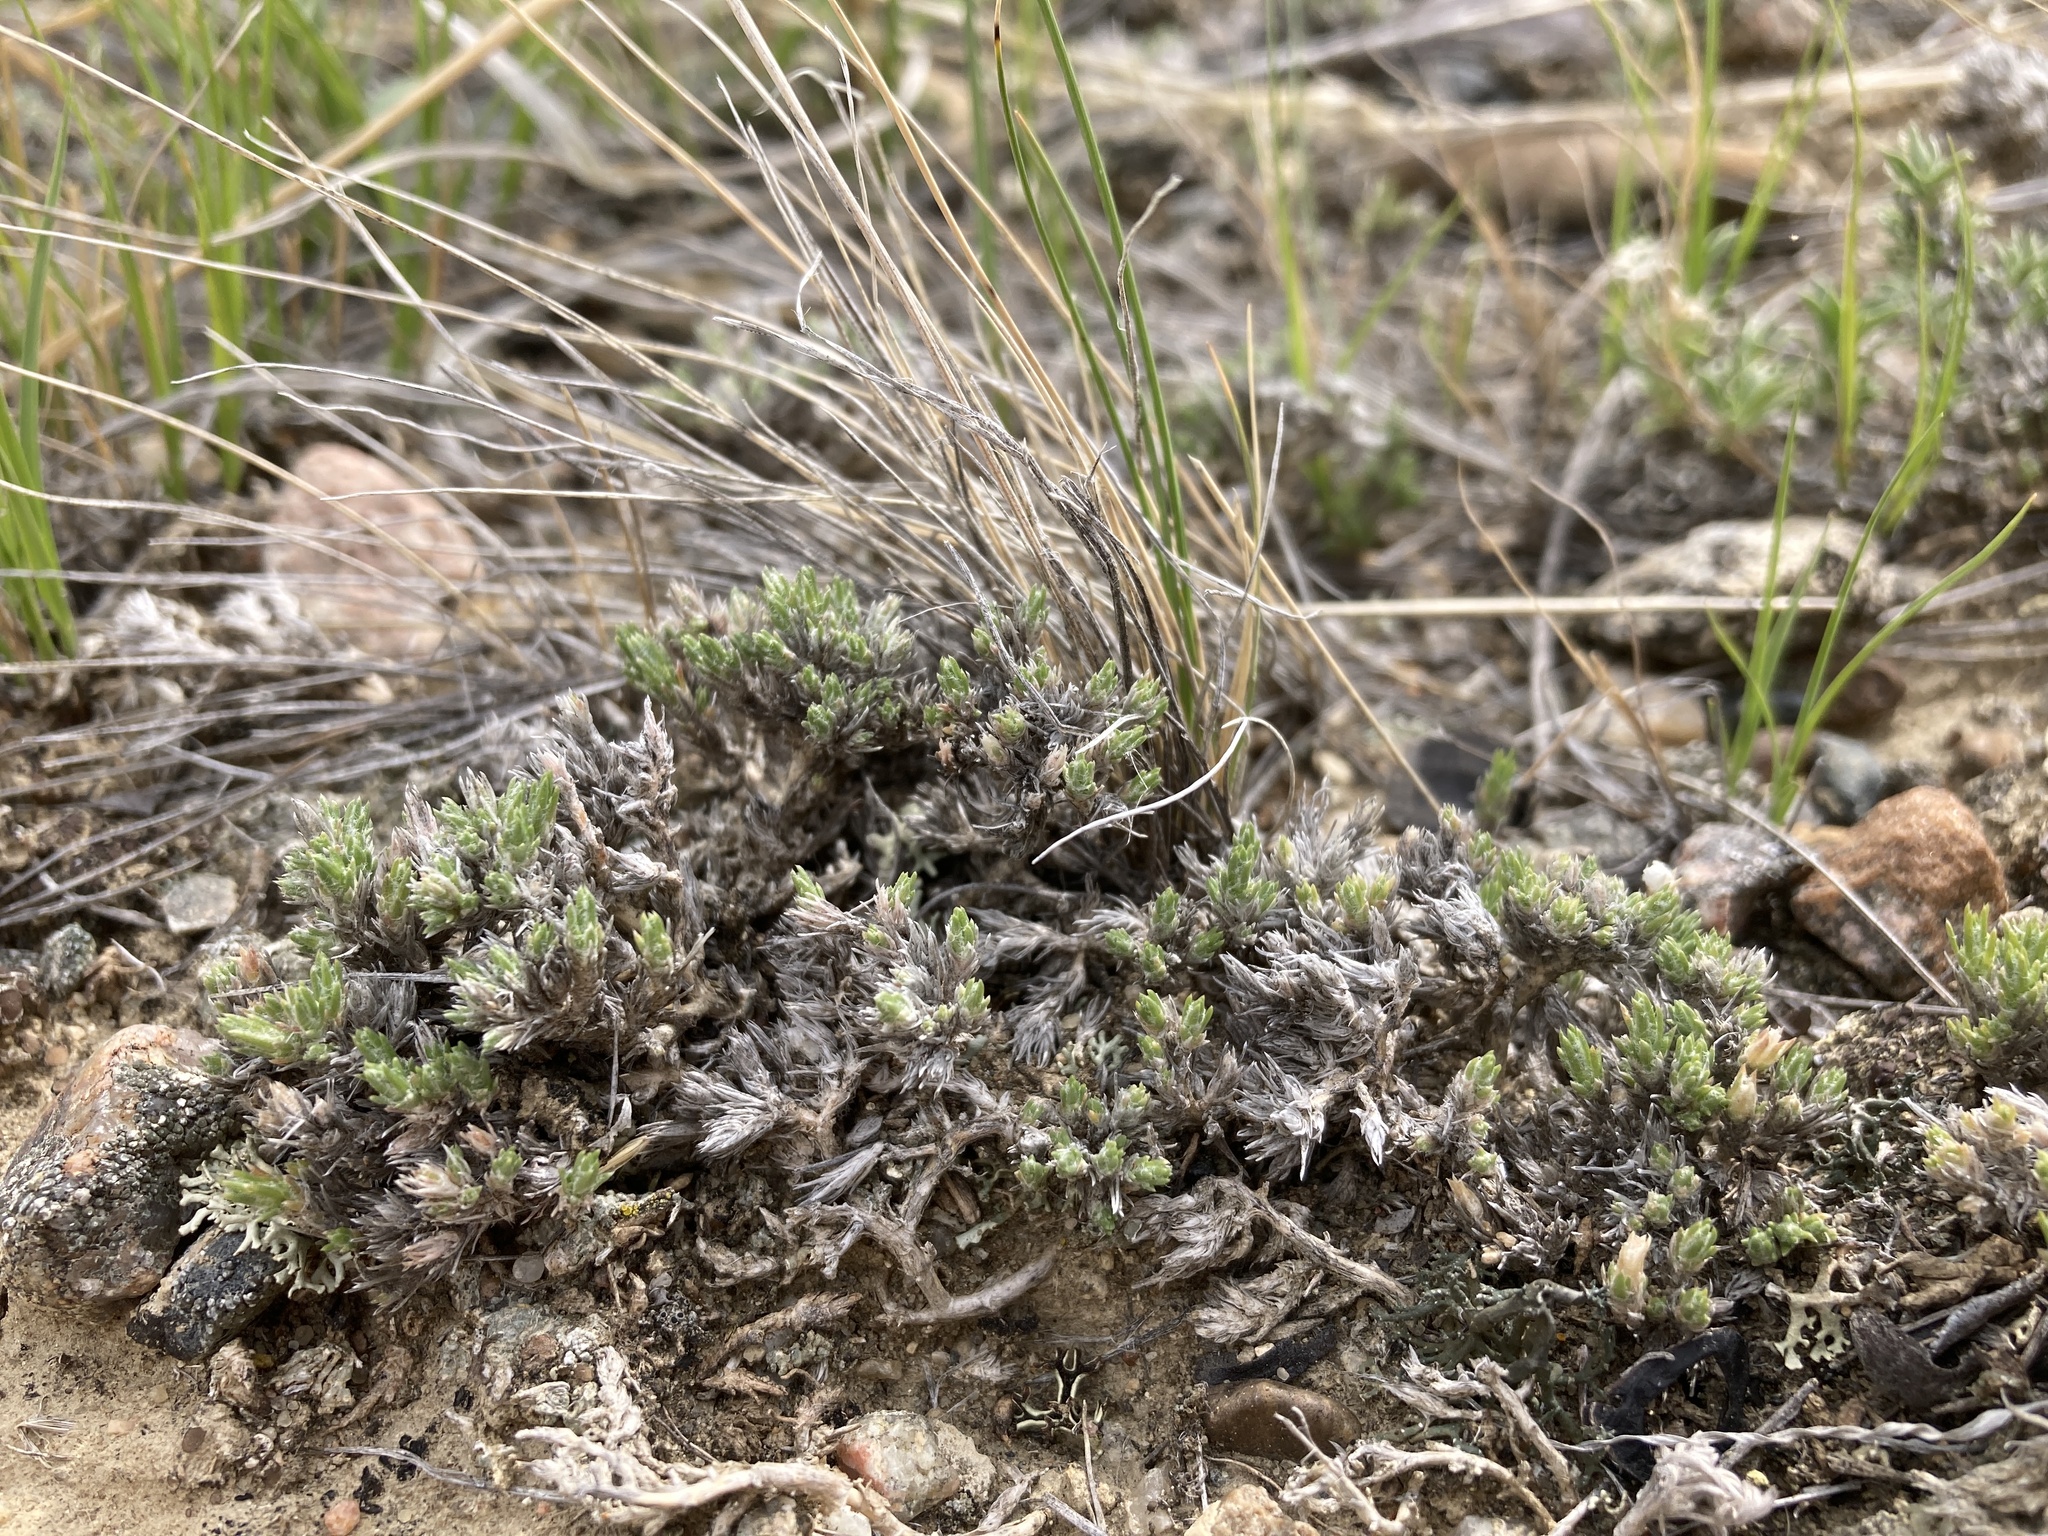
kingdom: Plantae
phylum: Tracheophyta
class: Magnoliopsida
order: Ericales
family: Polemoniaceae
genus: Phlox
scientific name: Phlox hoodii
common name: Moss phlox
